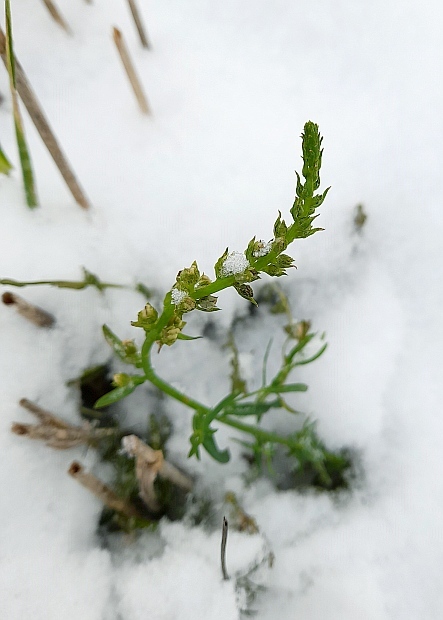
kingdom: Plantae
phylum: Tracheophyta
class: Magnoliopsida
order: Lamiales
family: Plantaginaceae
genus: Linaria
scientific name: Linaria vulgaris
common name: Butter and eggs
